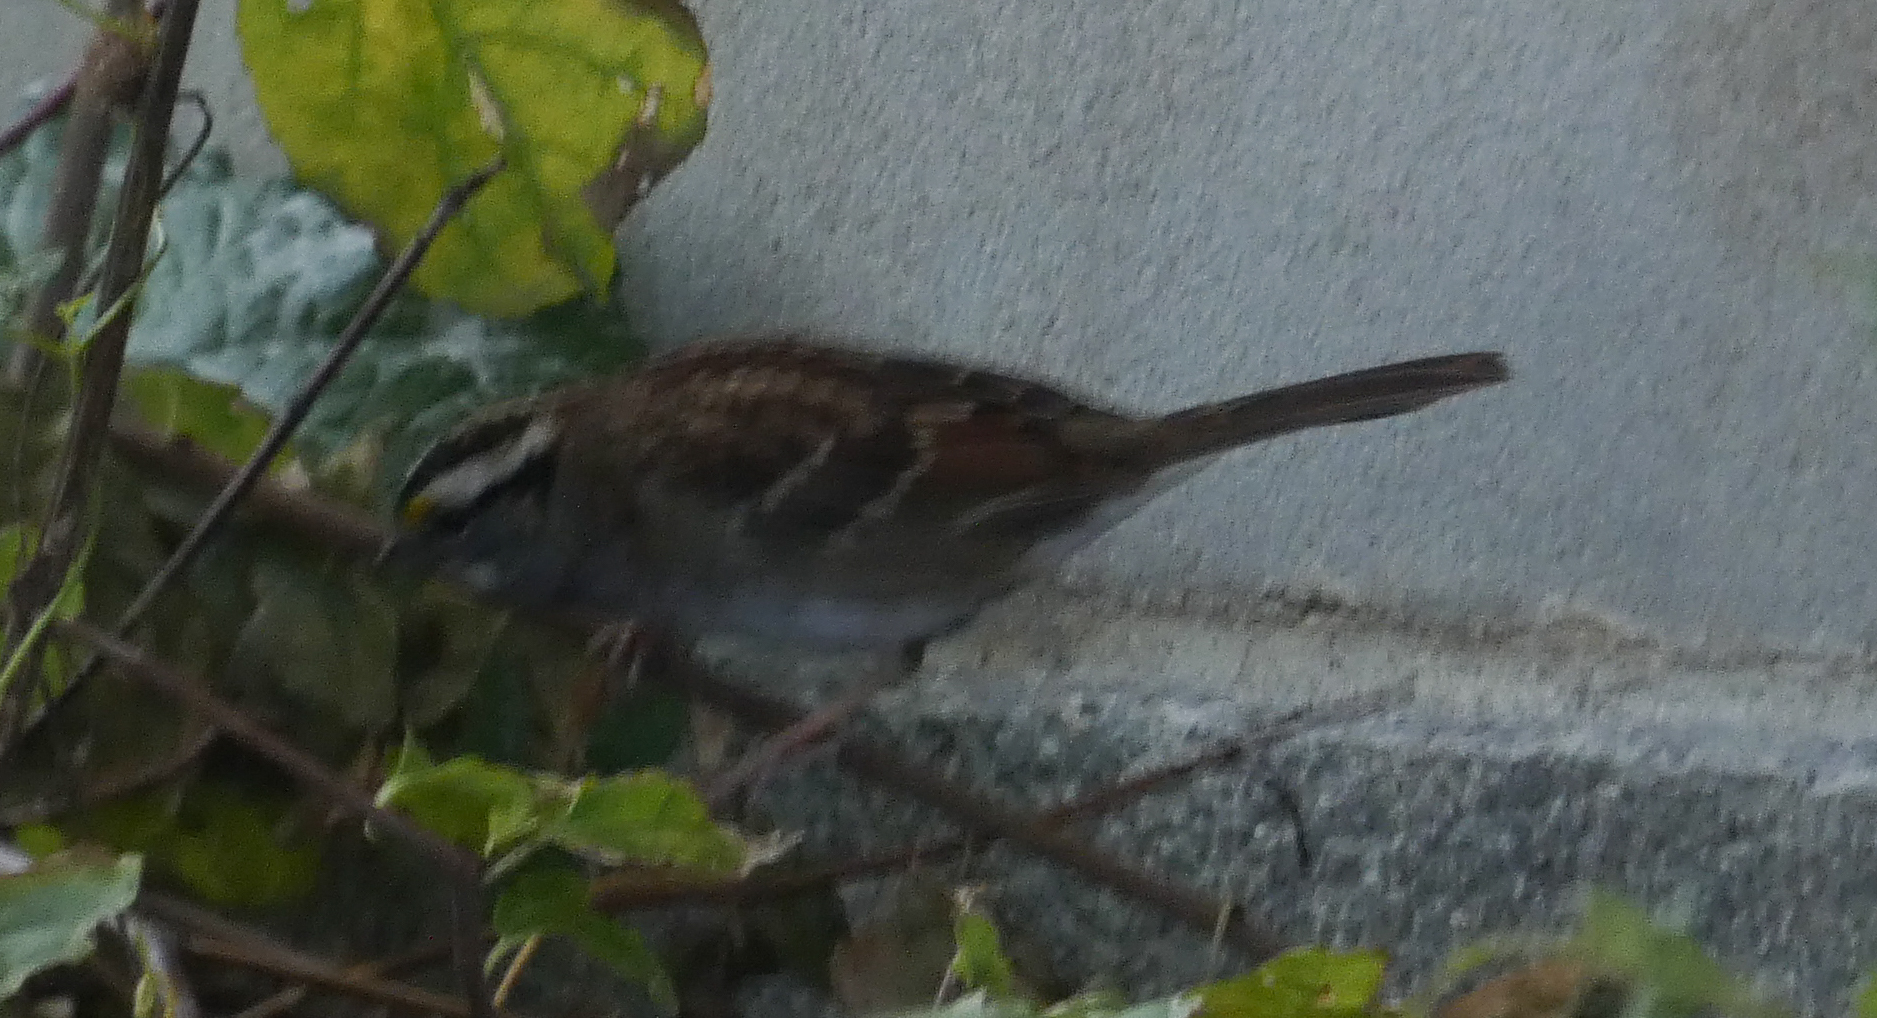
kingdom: Animalia
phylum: Chordata
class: Aves
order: Passeriformes
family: Passerellidae
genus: Zonotrichia
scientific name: Zonotrichia albicollis
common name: White-throated sparrow
